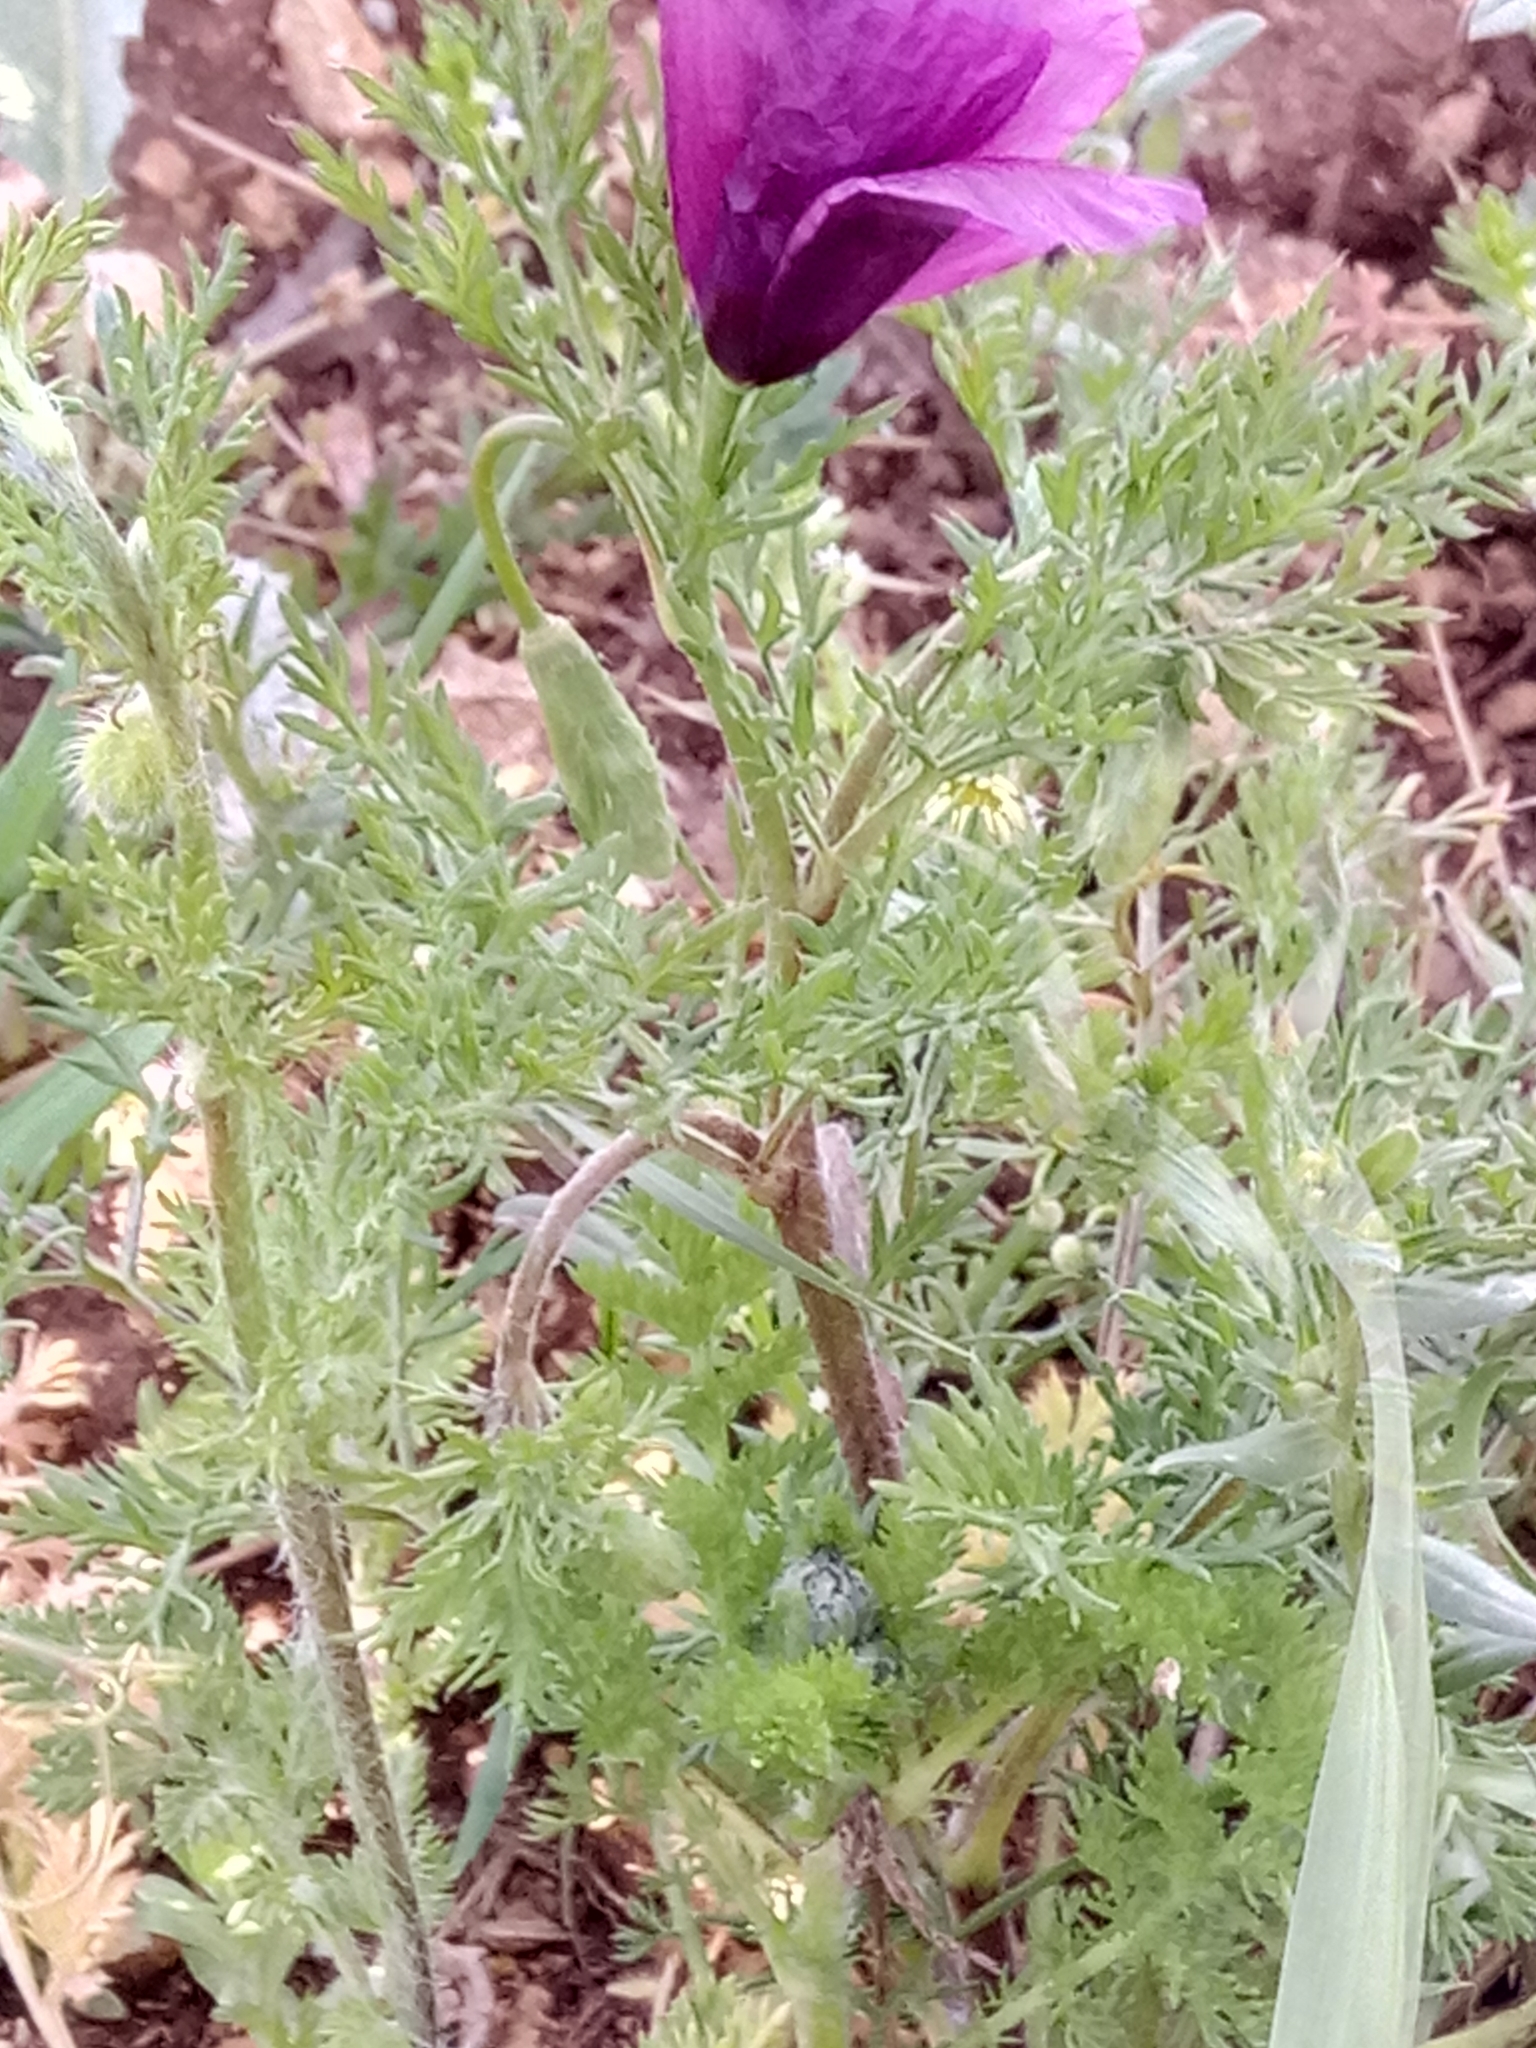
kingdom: Plantae
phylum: Tracheophyta
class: Magnoliopsida
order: Ranunculales
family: Papaveraceae
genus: Roemeria
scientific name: Roemeria hybrida
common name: Violet horned-poppy
